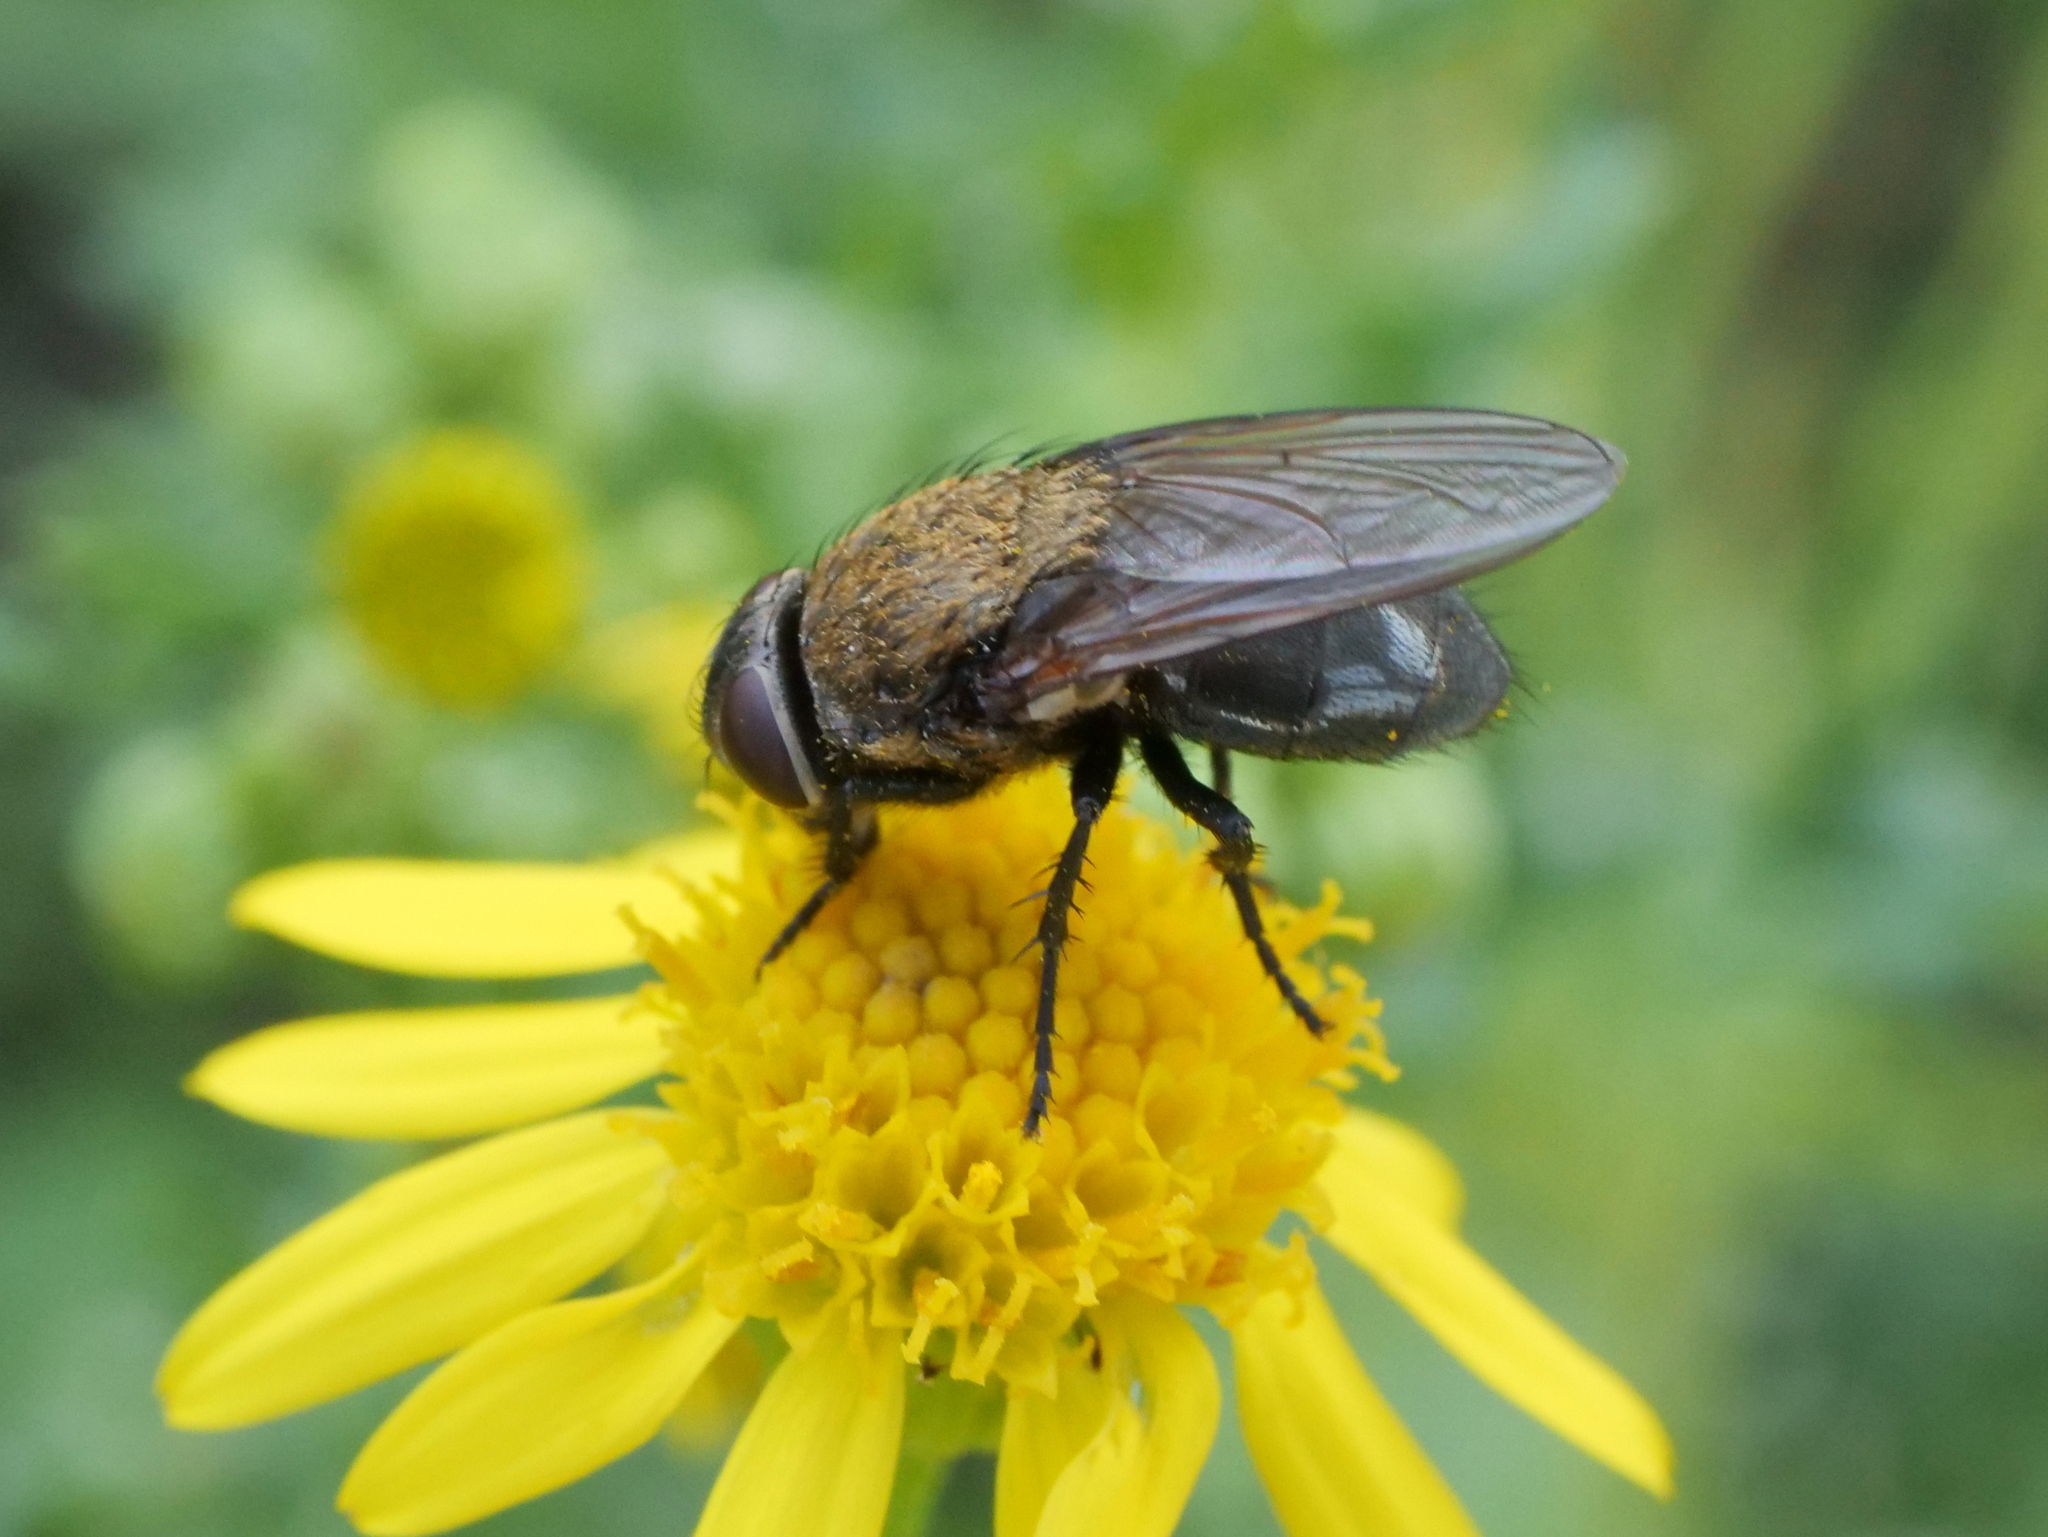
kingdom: Animalia
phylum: Arthropoda
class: Insecta
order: Diptera
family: Polleniidae
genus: Pollenia
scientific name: Pollenia
